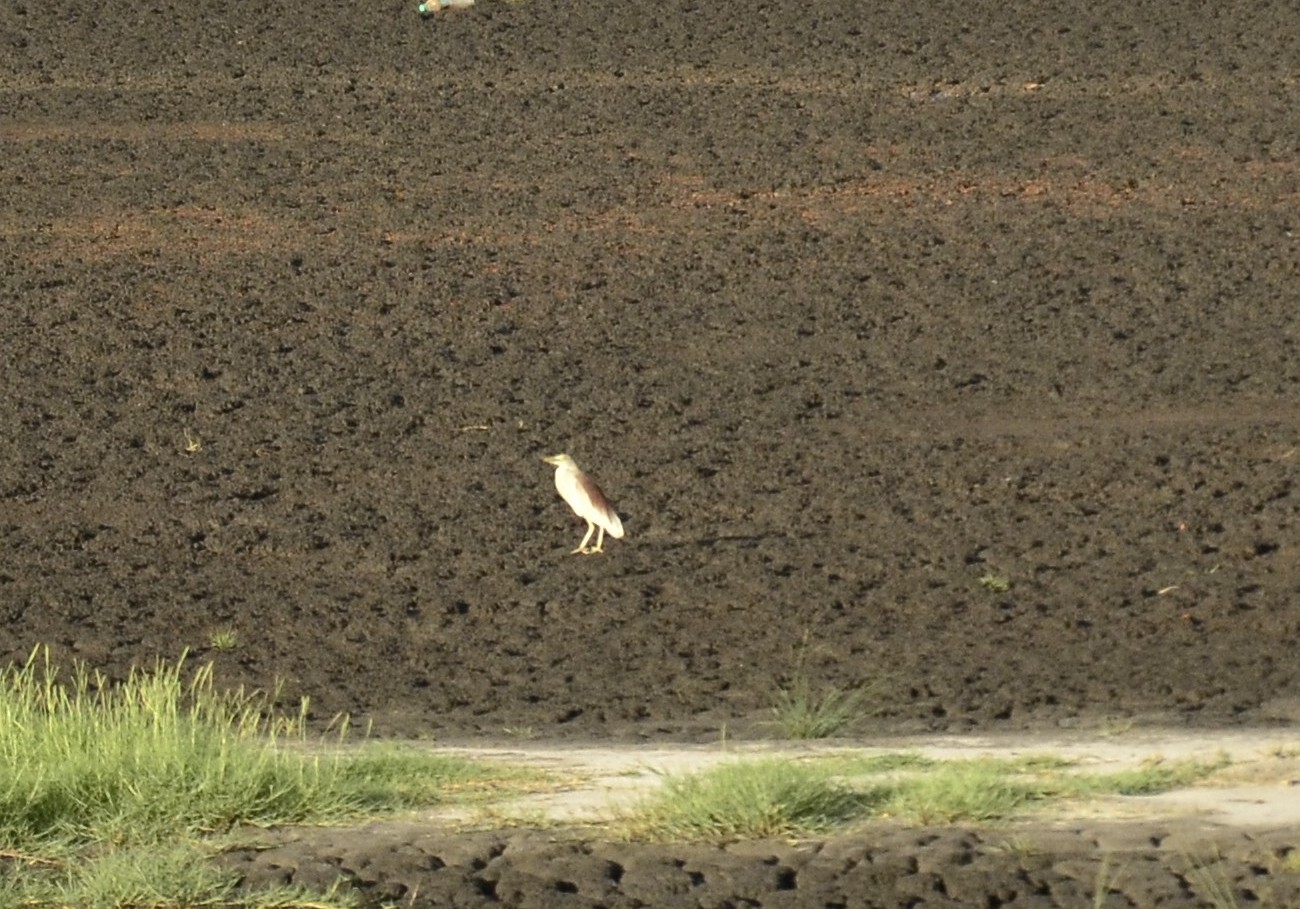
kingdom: Animalia
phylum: Chordata
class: Aves
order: Pelecaniformes
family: Ardeidae
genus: Ardeola
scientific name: Ardeola grayii
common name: Indian pond heron
